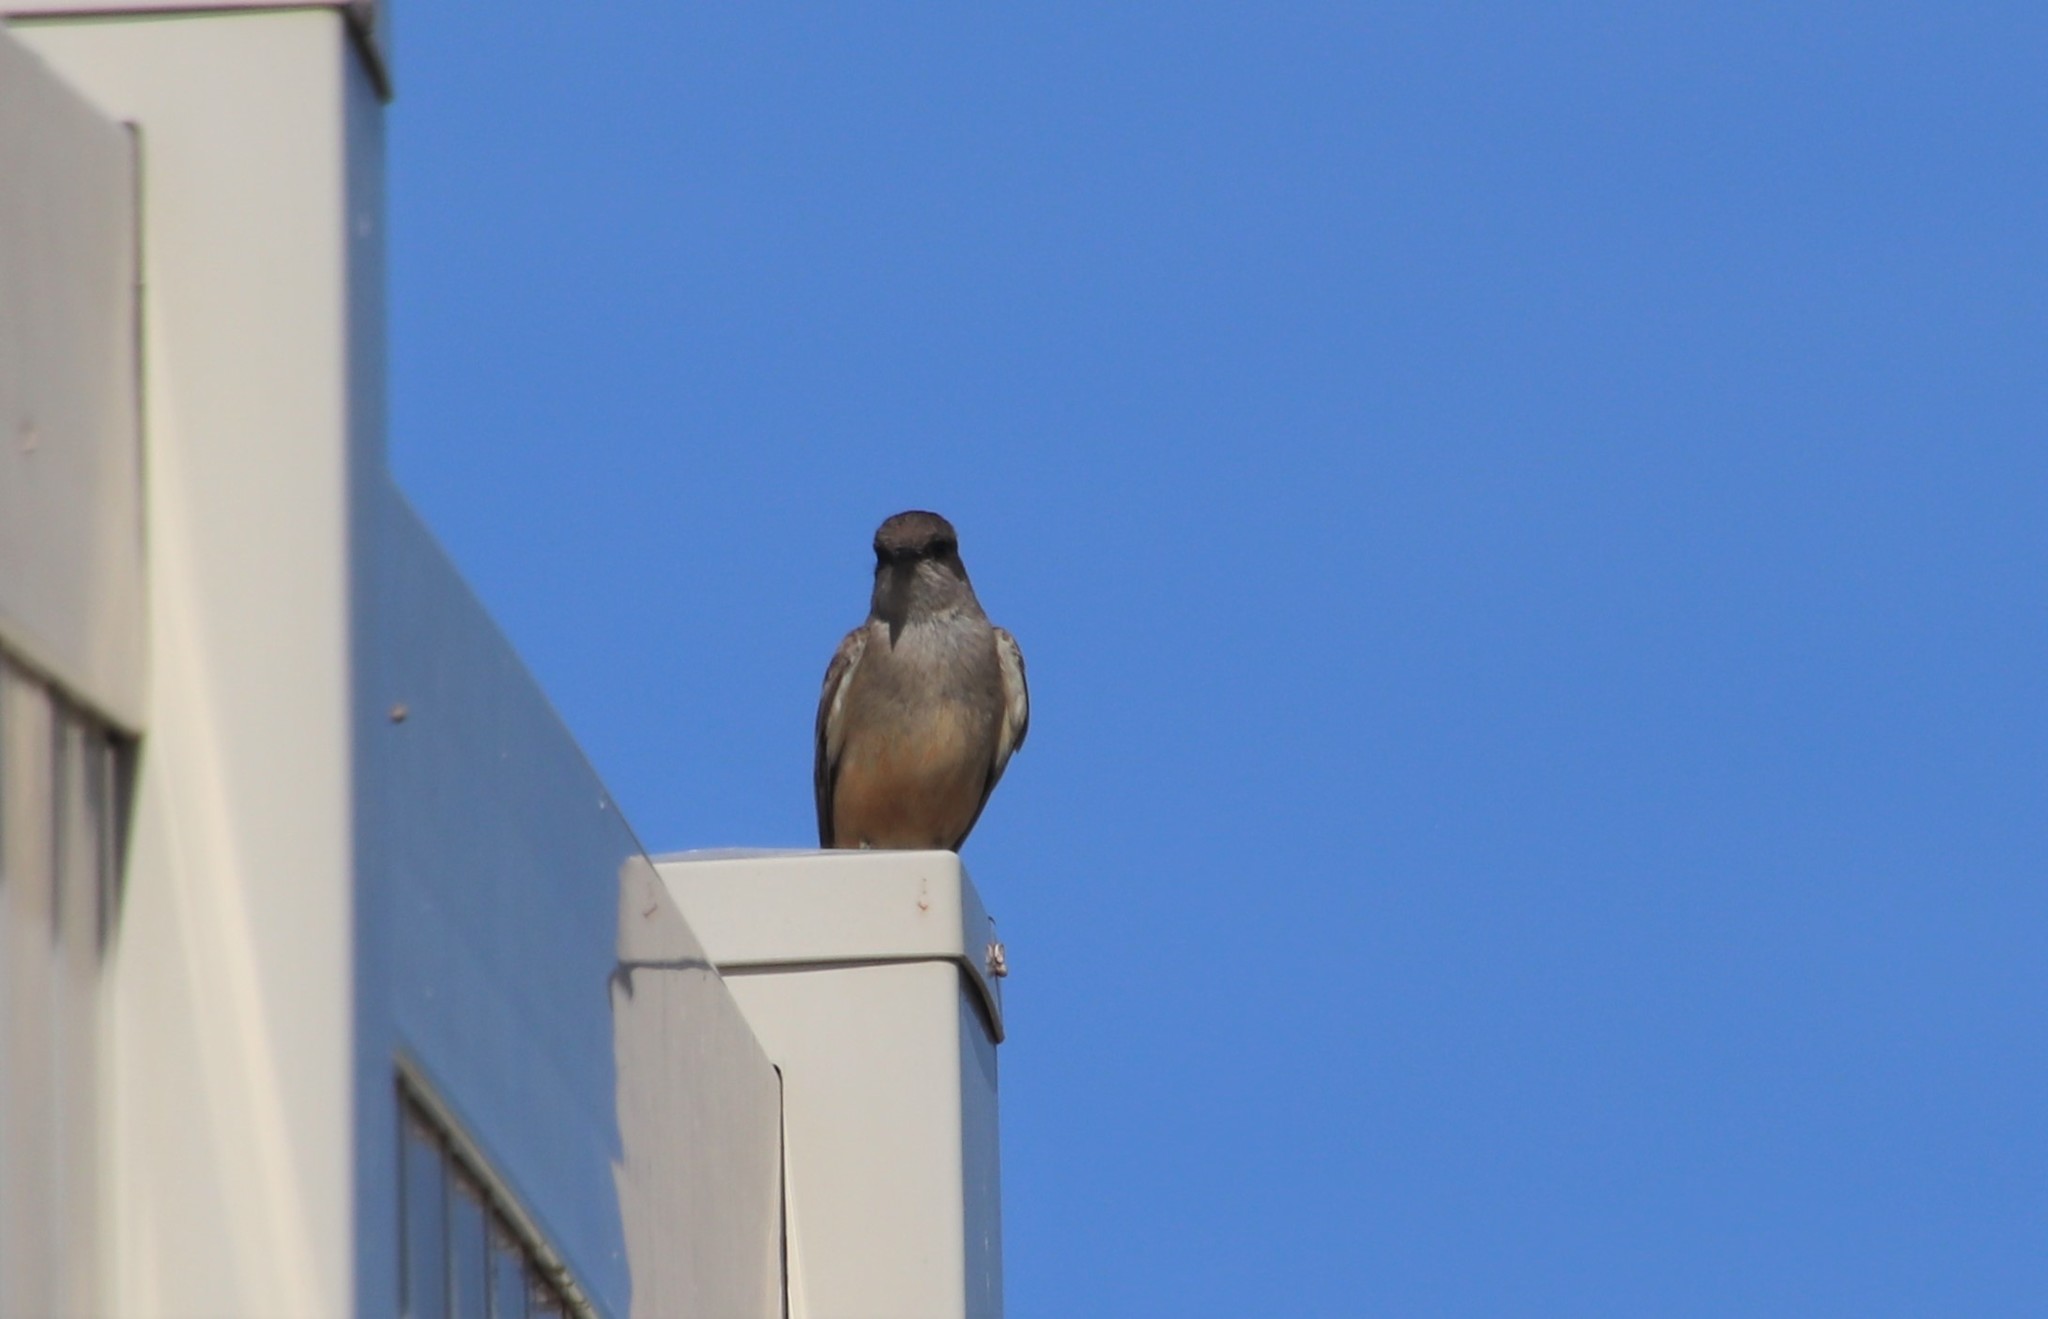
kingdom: Animalia
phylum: Chordata
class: Aves
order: Passeriformes
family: Tyrannidae
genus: Sayornis
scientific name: Sayornis saya
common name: Say's phoebe
